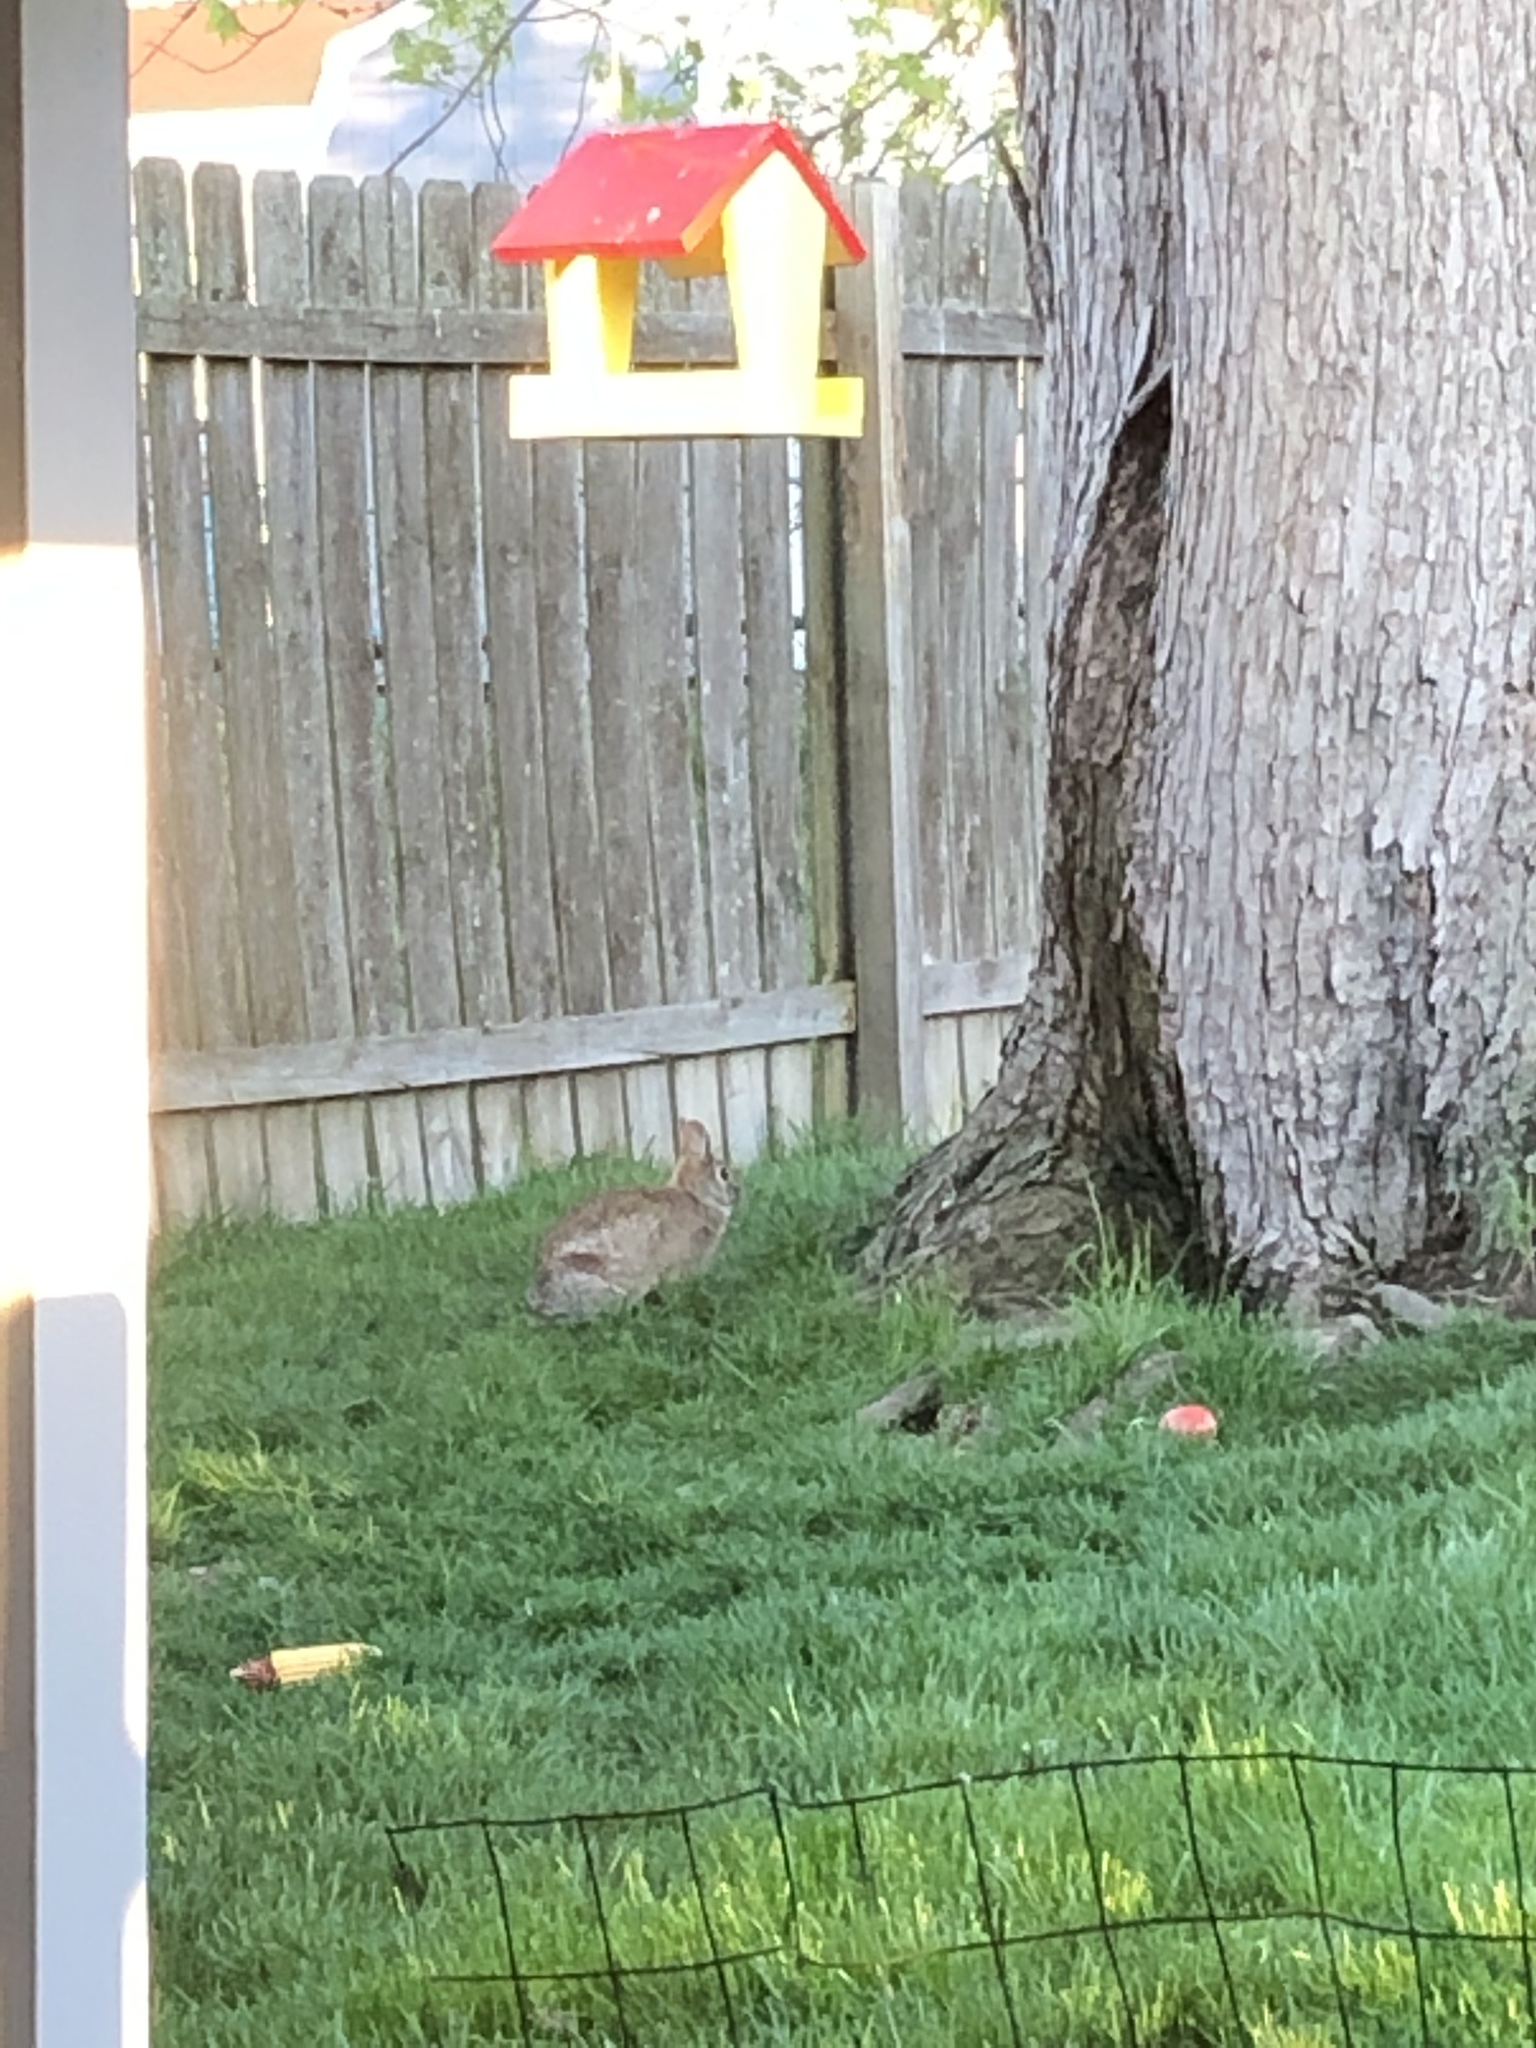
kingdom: Animalia
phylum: Chordata
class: Mammalia
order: Lagomorpha
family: Leporidae
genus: Sylvilagus
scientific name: Sylvilagus floridanus
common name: Eastern cottontail
